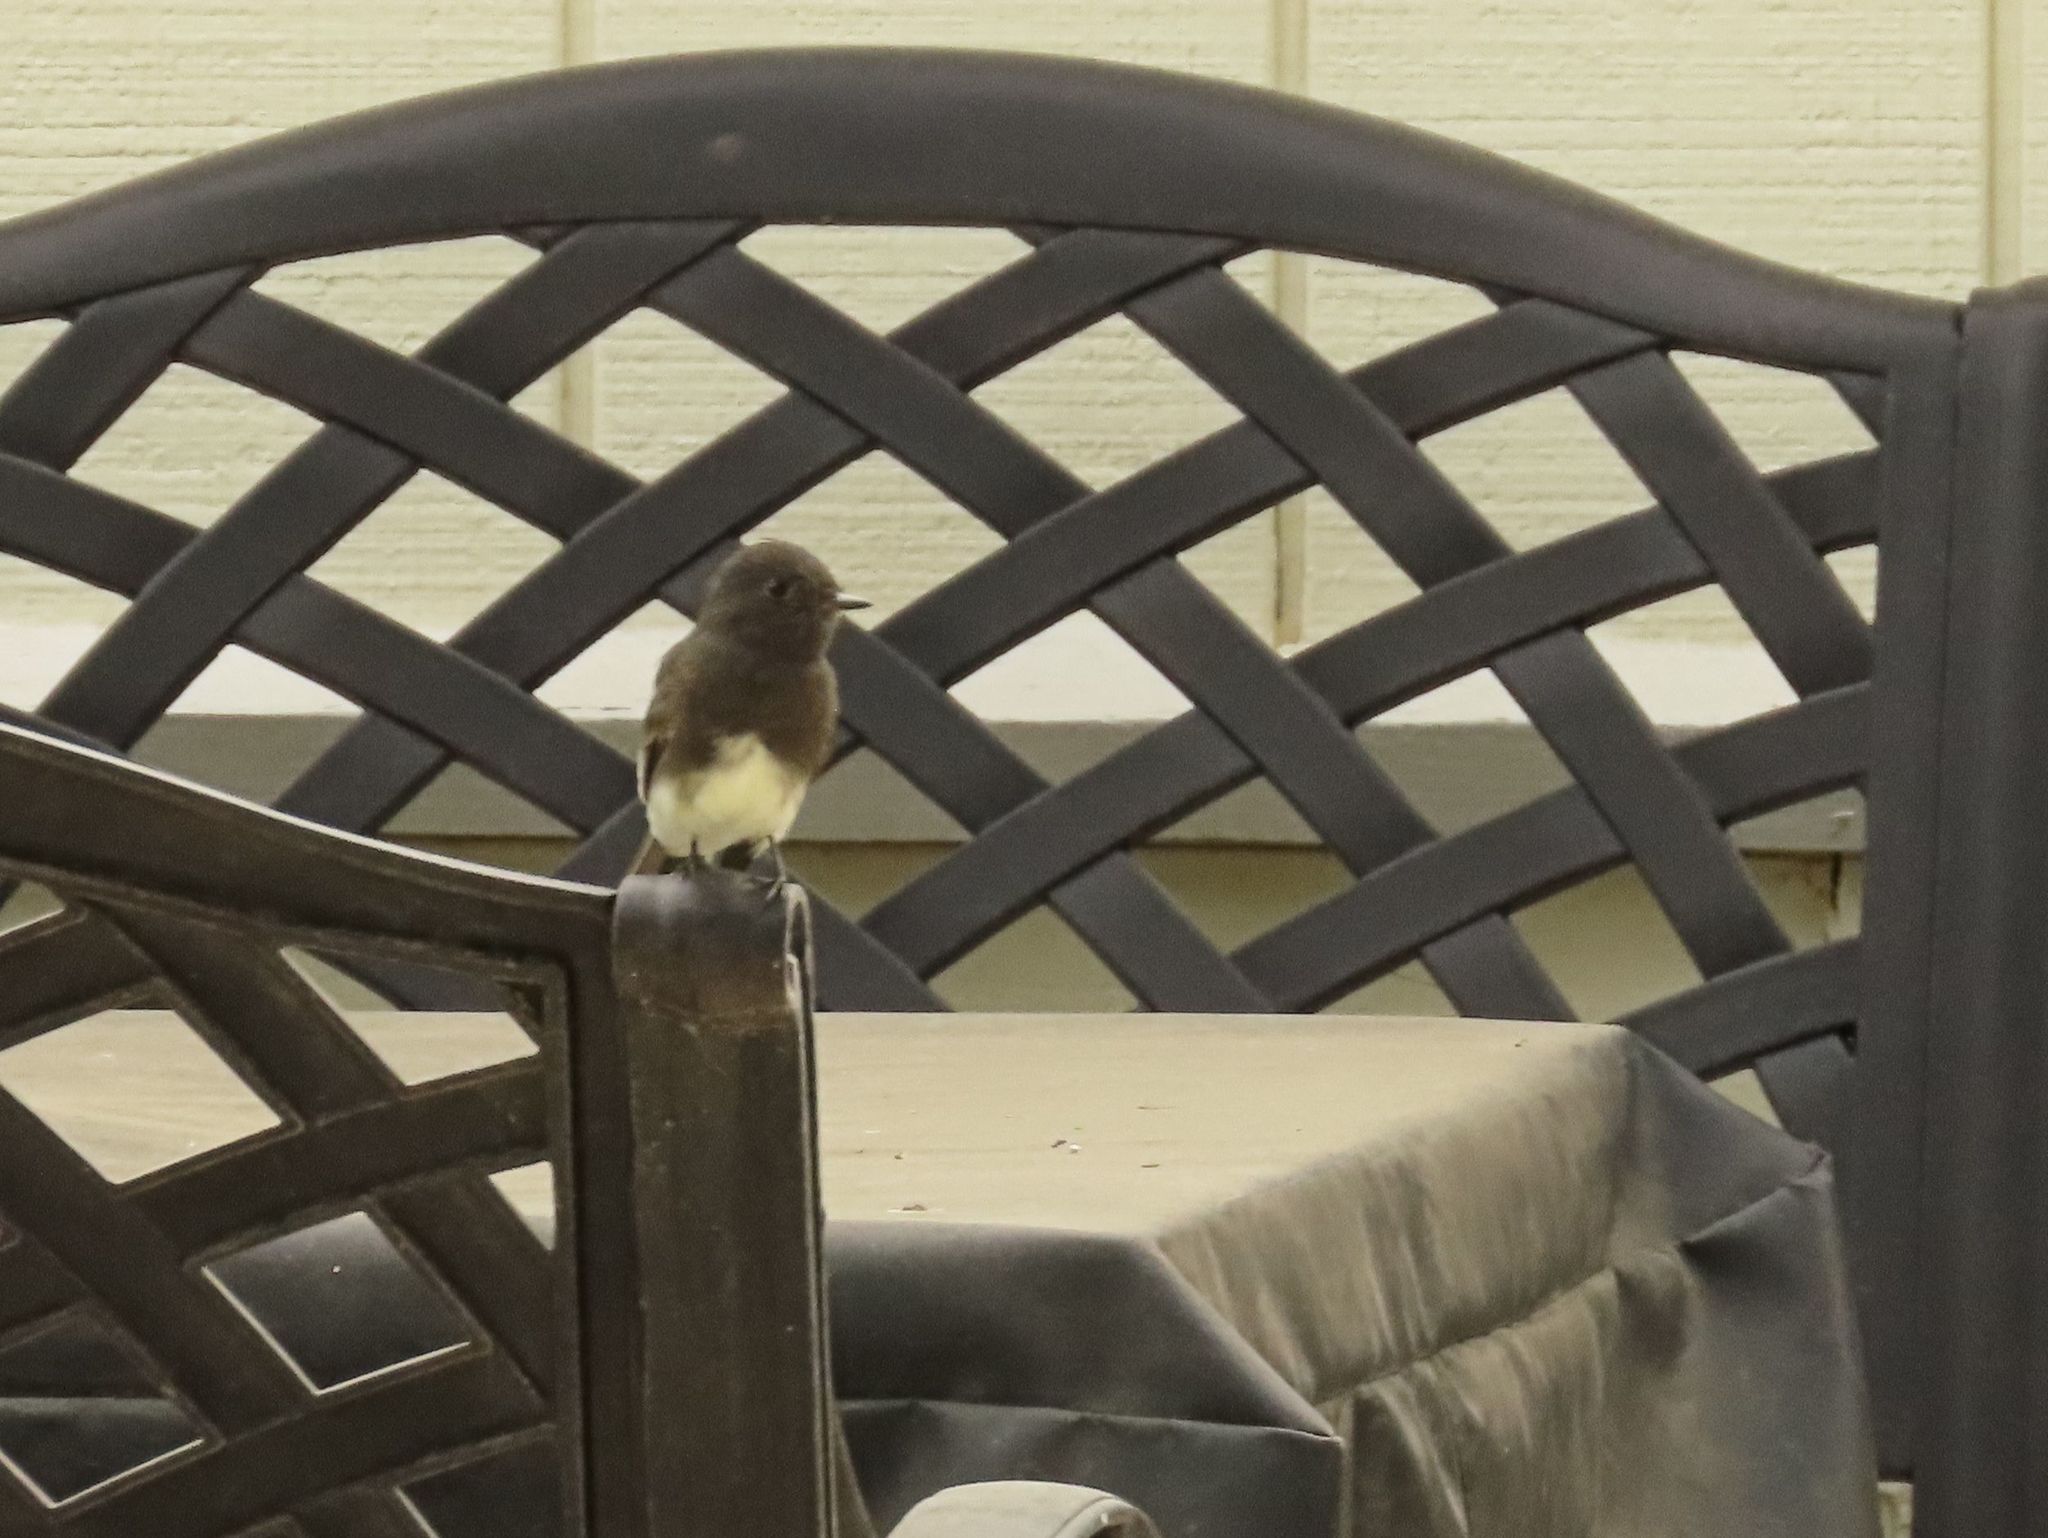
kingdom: Animalia
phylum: Chordata
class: Aves
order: Passeriformes
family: Tyrannidae
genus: Sayornis
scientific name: Sayornis nigricans
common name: Black phoebe
